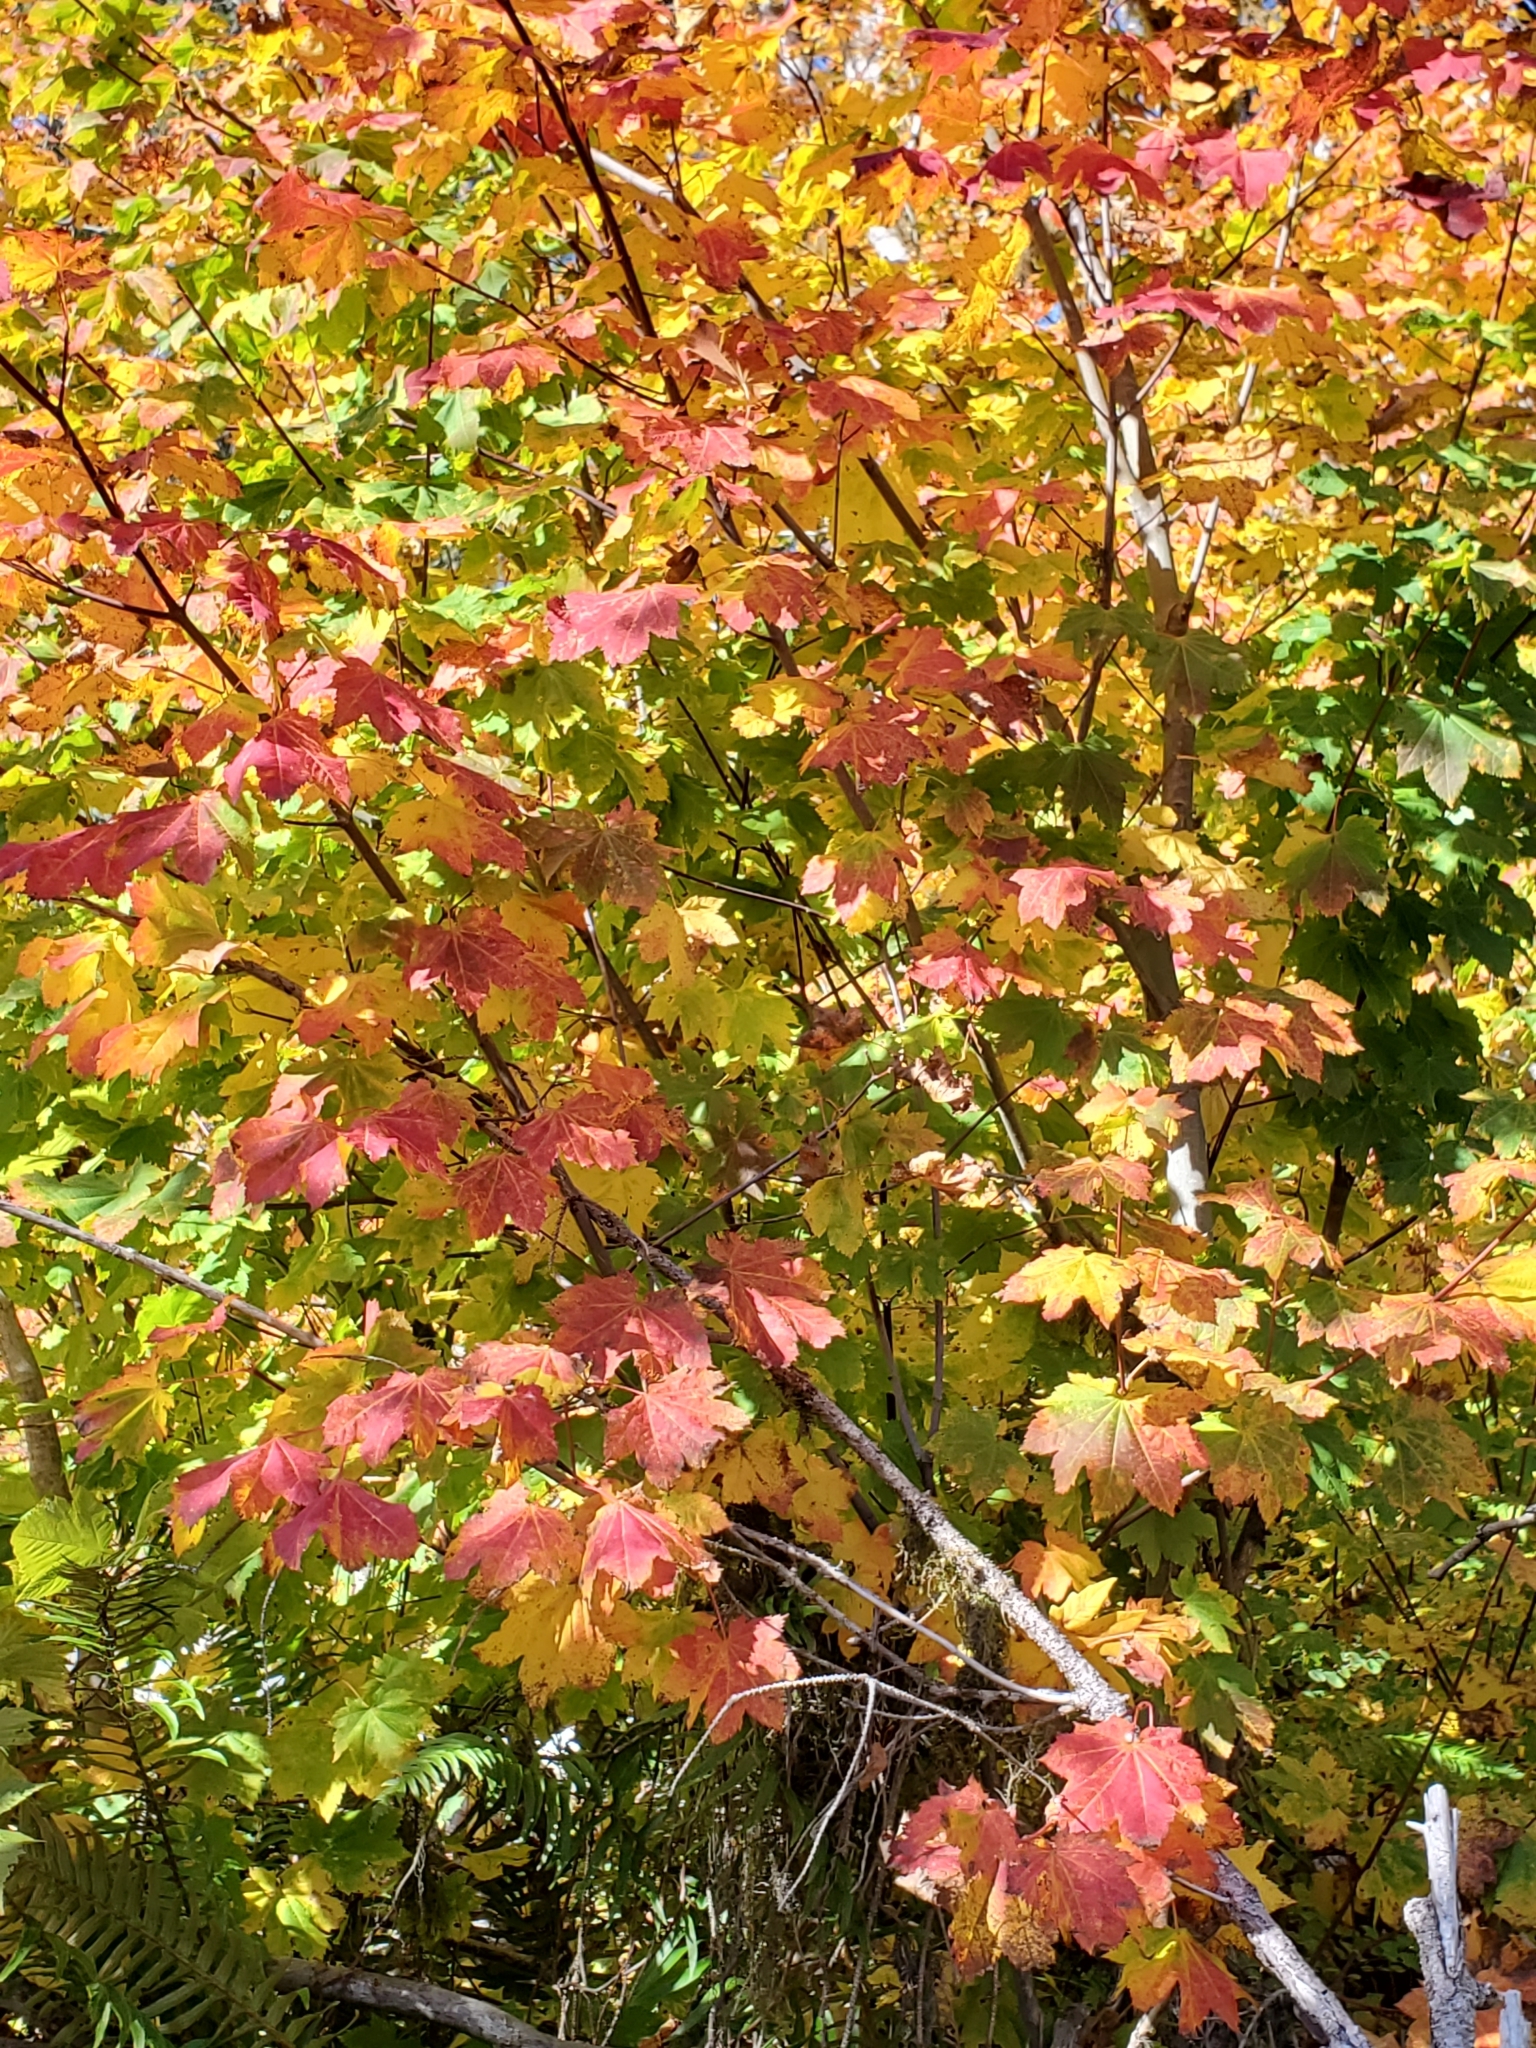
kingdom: Plantae
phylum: Tracheophyta
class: Magnoliopsida
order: Sapindales
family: Sapindaceae
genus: Acer
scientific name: Acer circinatum
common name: Vine maple
